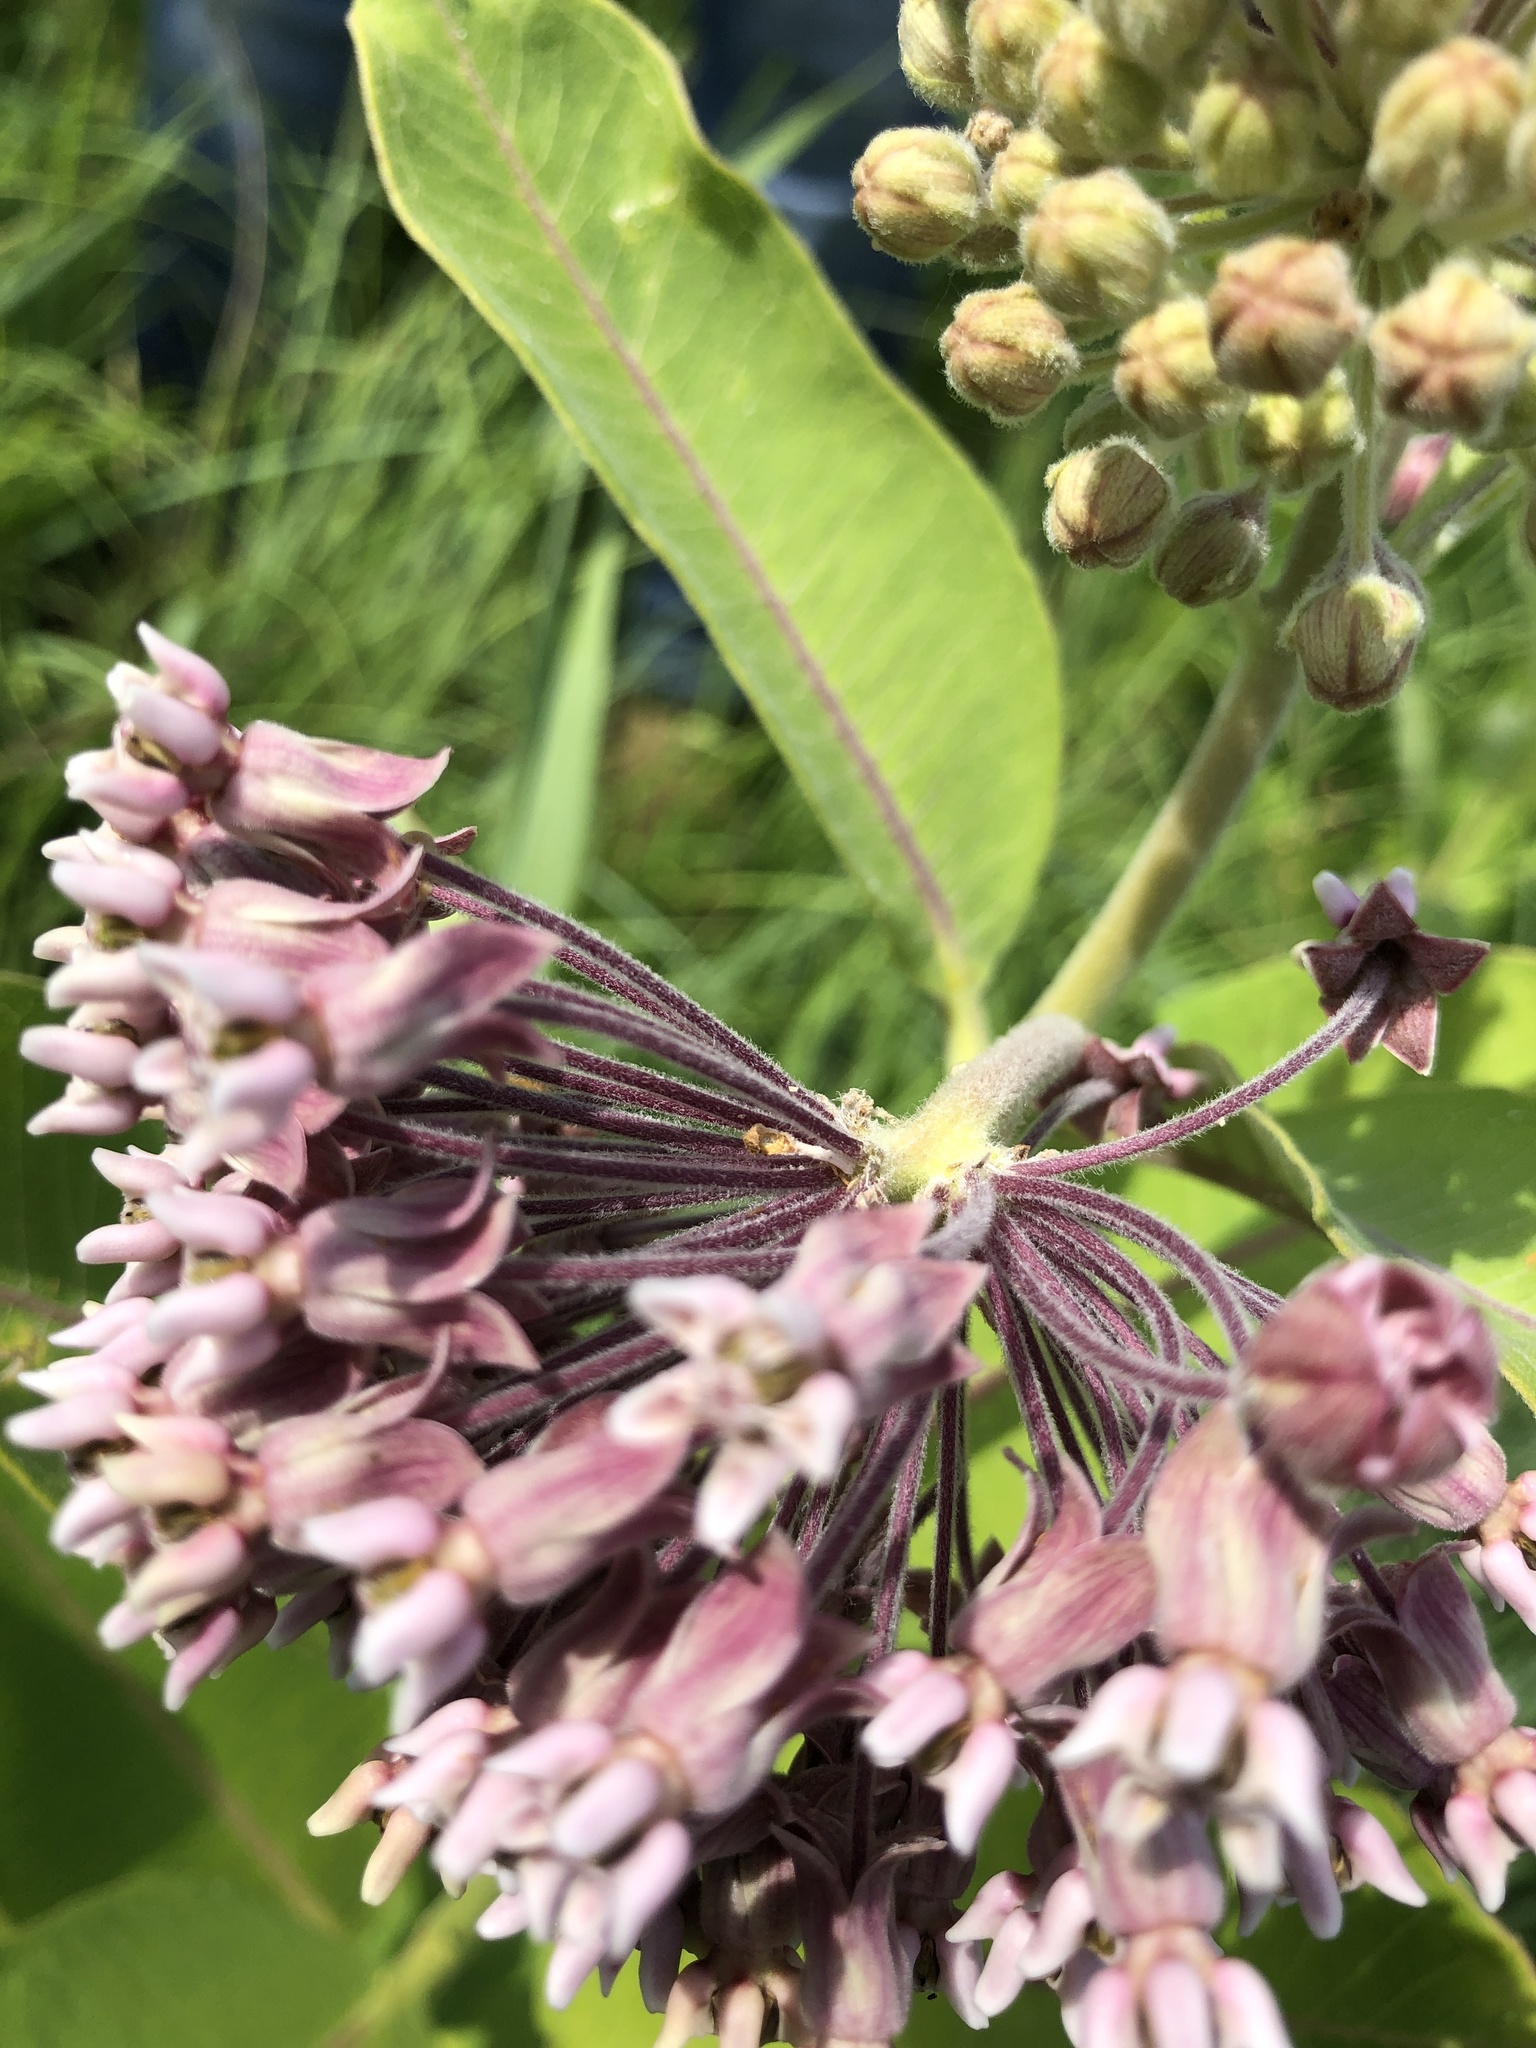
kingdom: Plantae
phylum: Tracheophyta
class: Magnoliopsida
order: Gentianales
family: Apocynaceae
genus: Asclepias
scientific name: Asclepias syriaca
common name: Common milkweed
